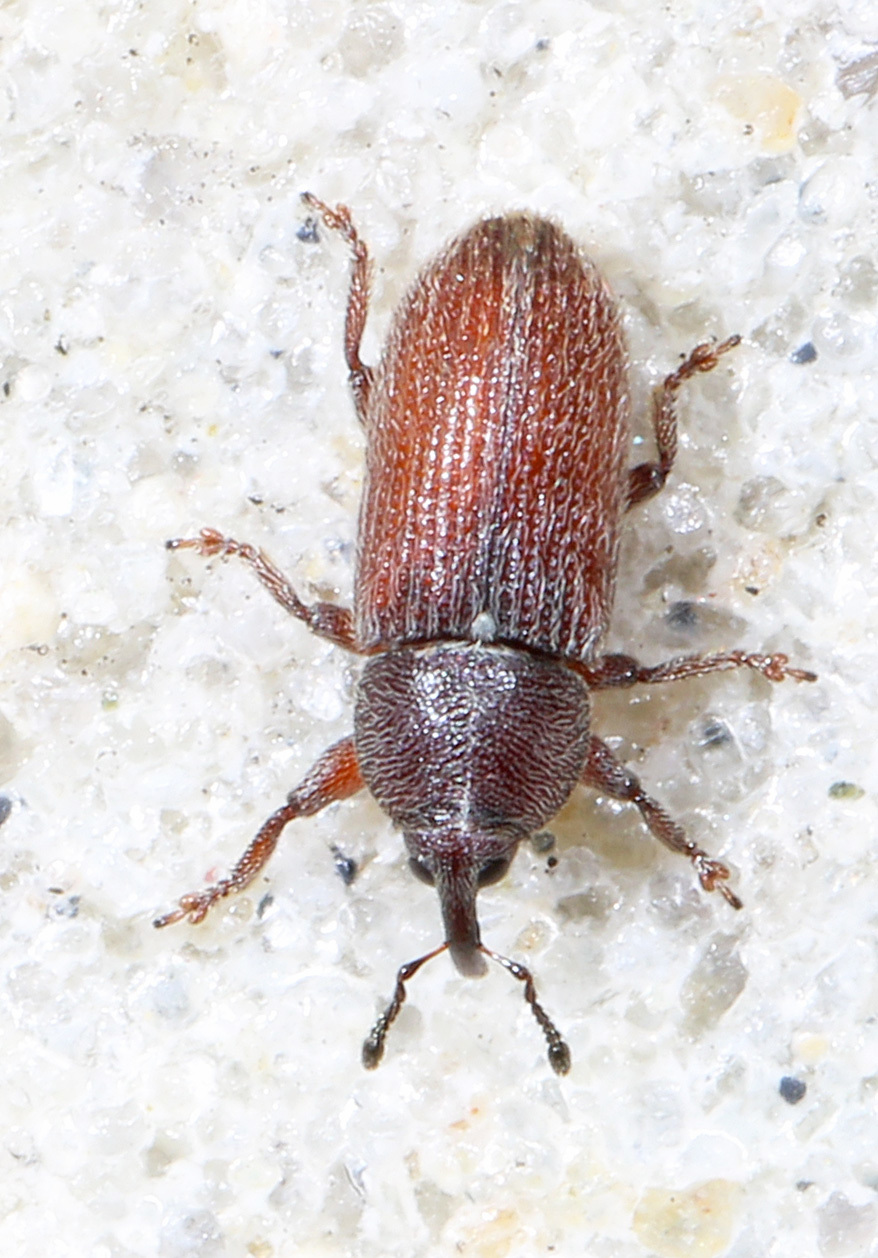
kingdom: Animalia
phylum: Arthropoda
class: Insecta
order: Coleoptera
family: Curculionidae
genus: Mecinus
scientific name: Mecinus pyraster
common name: Weevil
